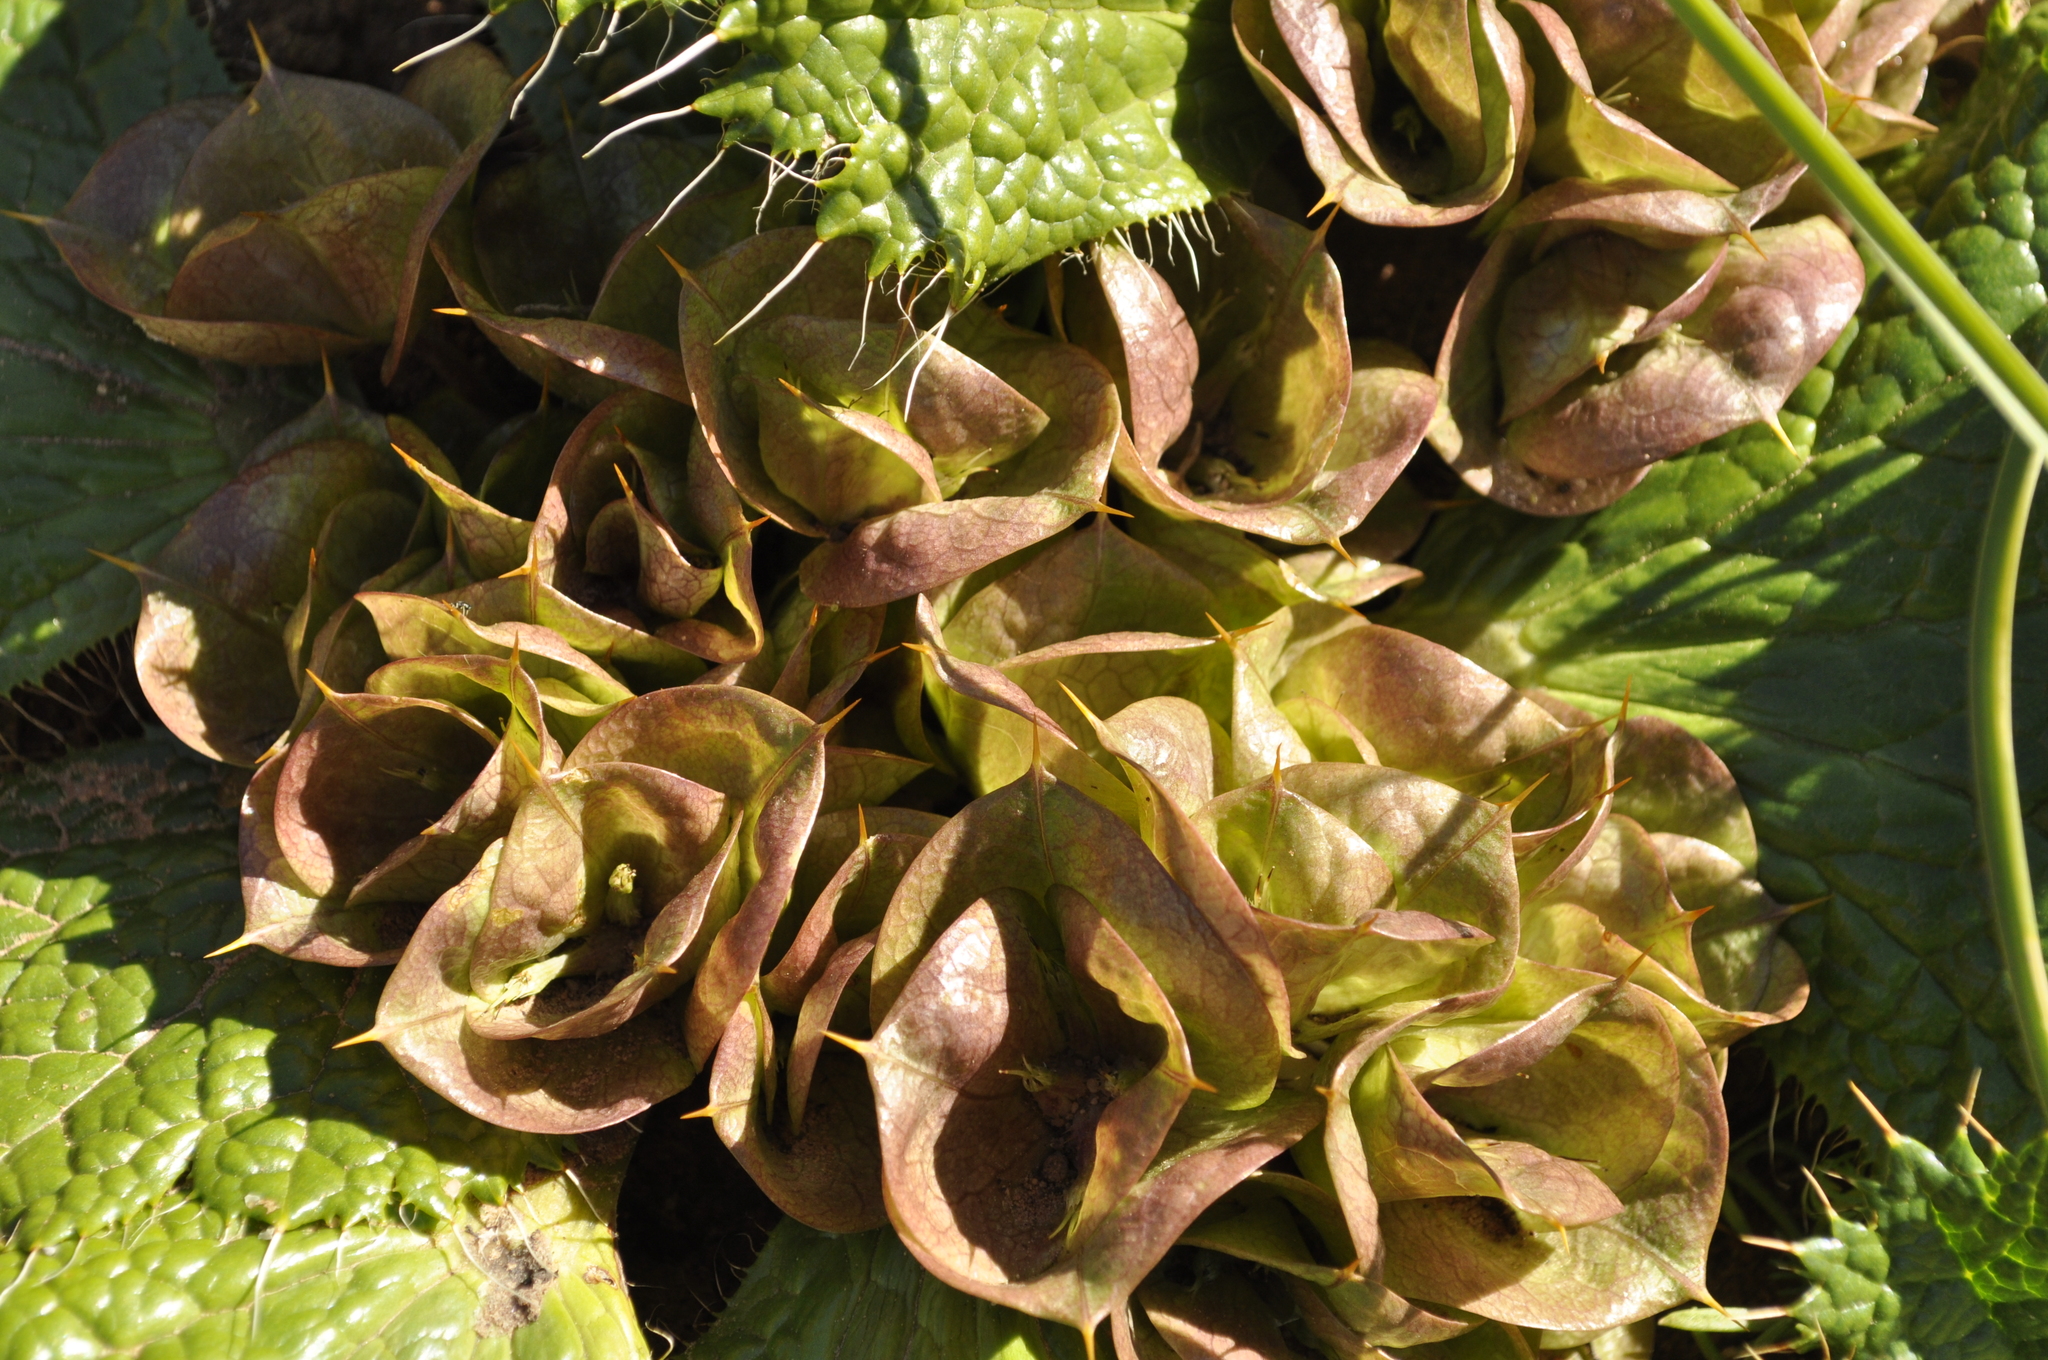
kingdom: Plantae
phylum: Tracheophyta
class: Magnoliopsida
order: Apiales
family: Apiaceae
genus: Arctopus
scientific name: Arctopus monacanthus
